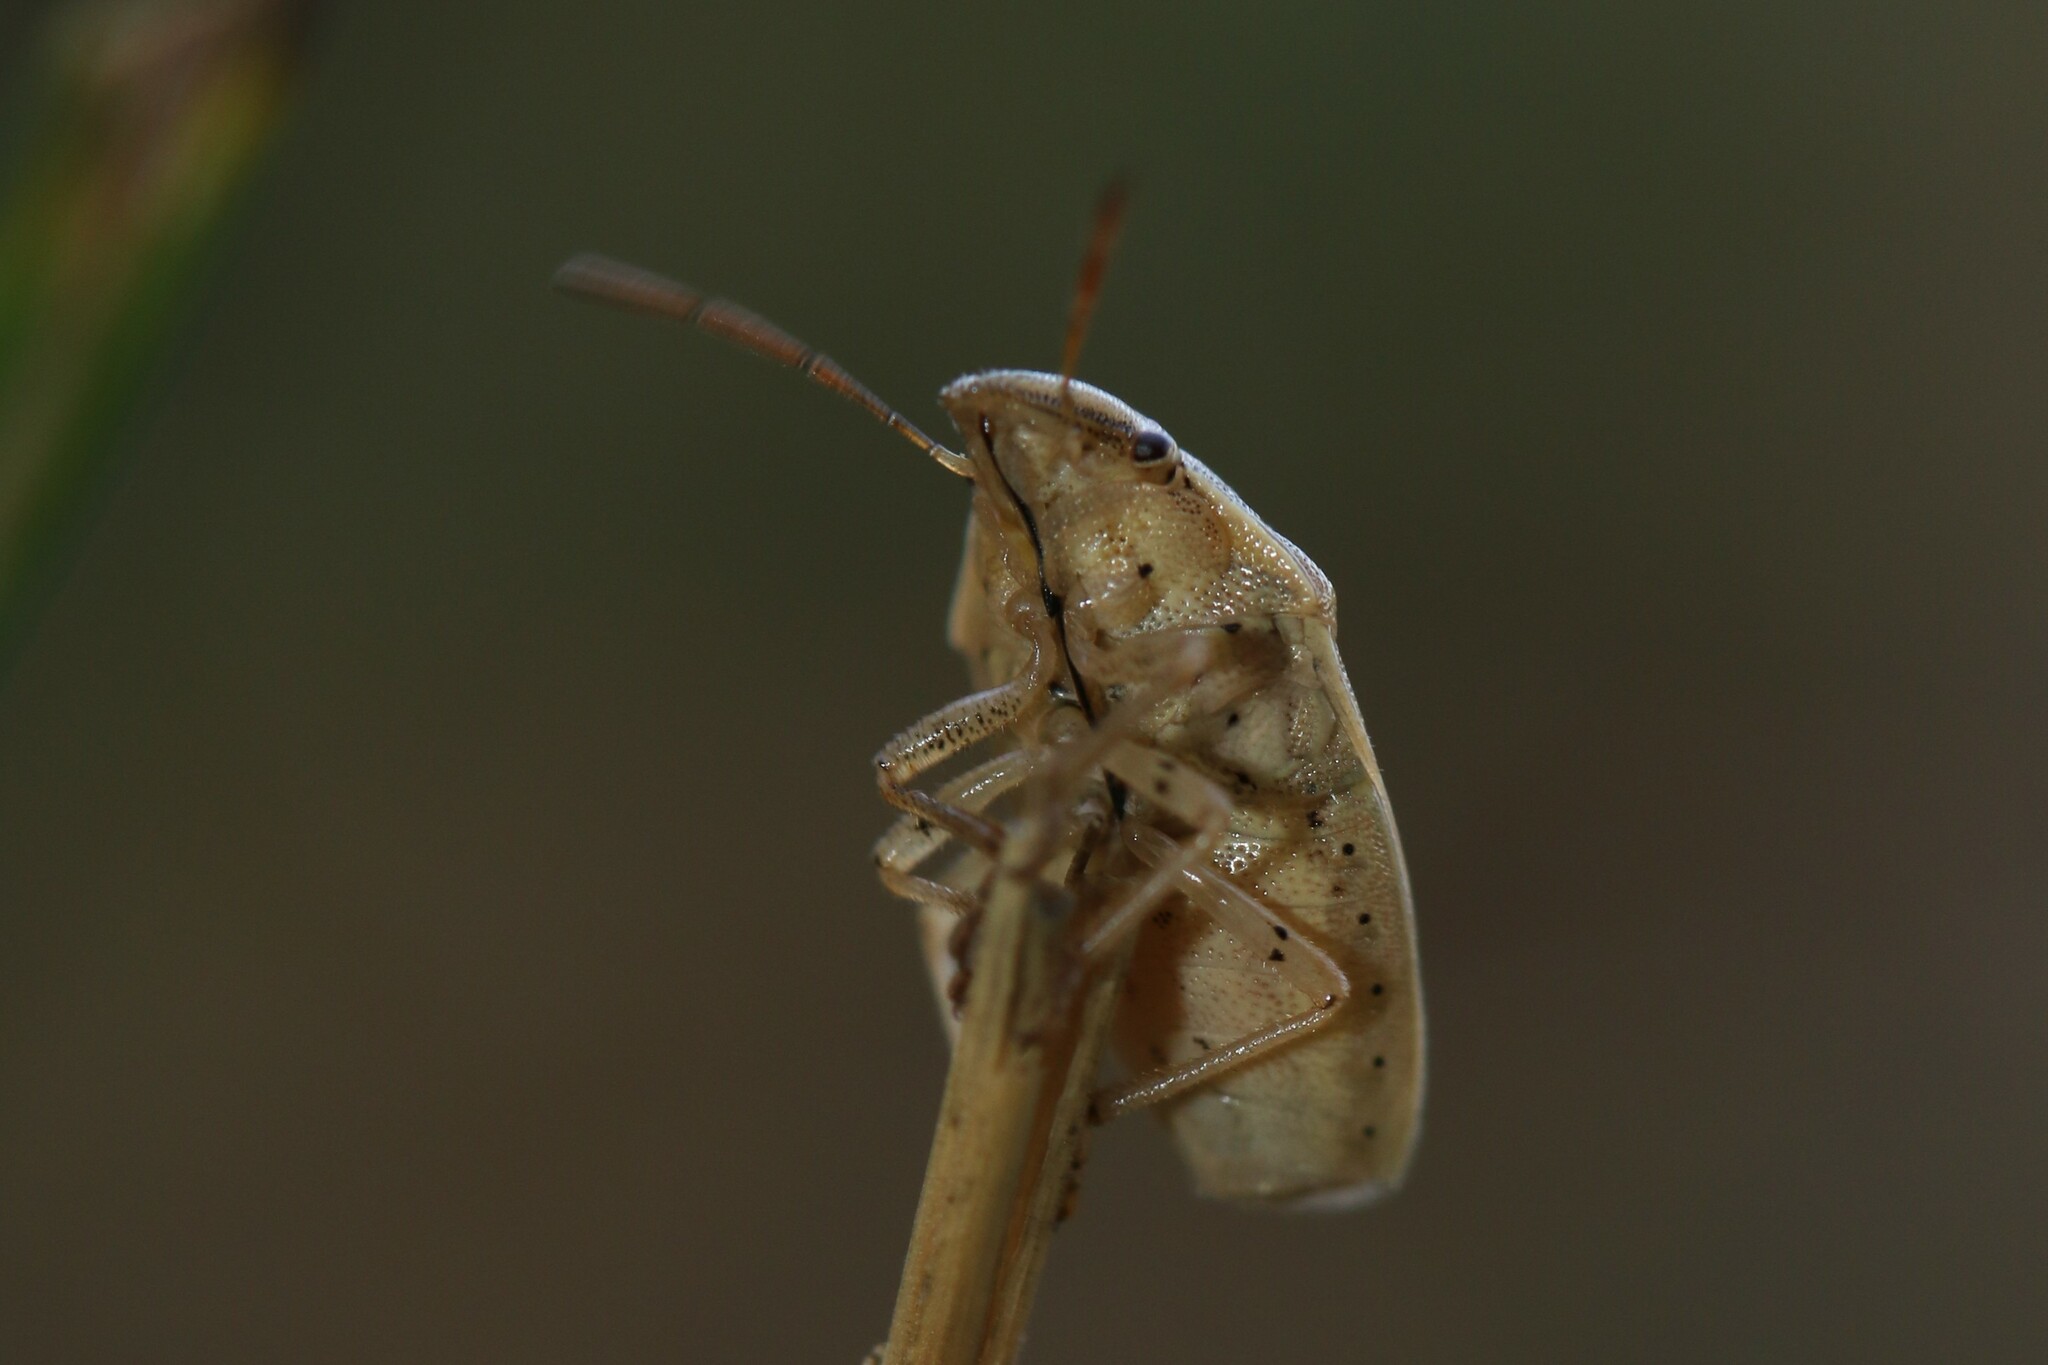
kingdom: Animalia
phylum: Arthropoda
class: Insecta
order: Hemiptera
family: Pentatomidae
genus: Aelia
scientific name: Aelia acuminata
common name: Bishop's mitre
